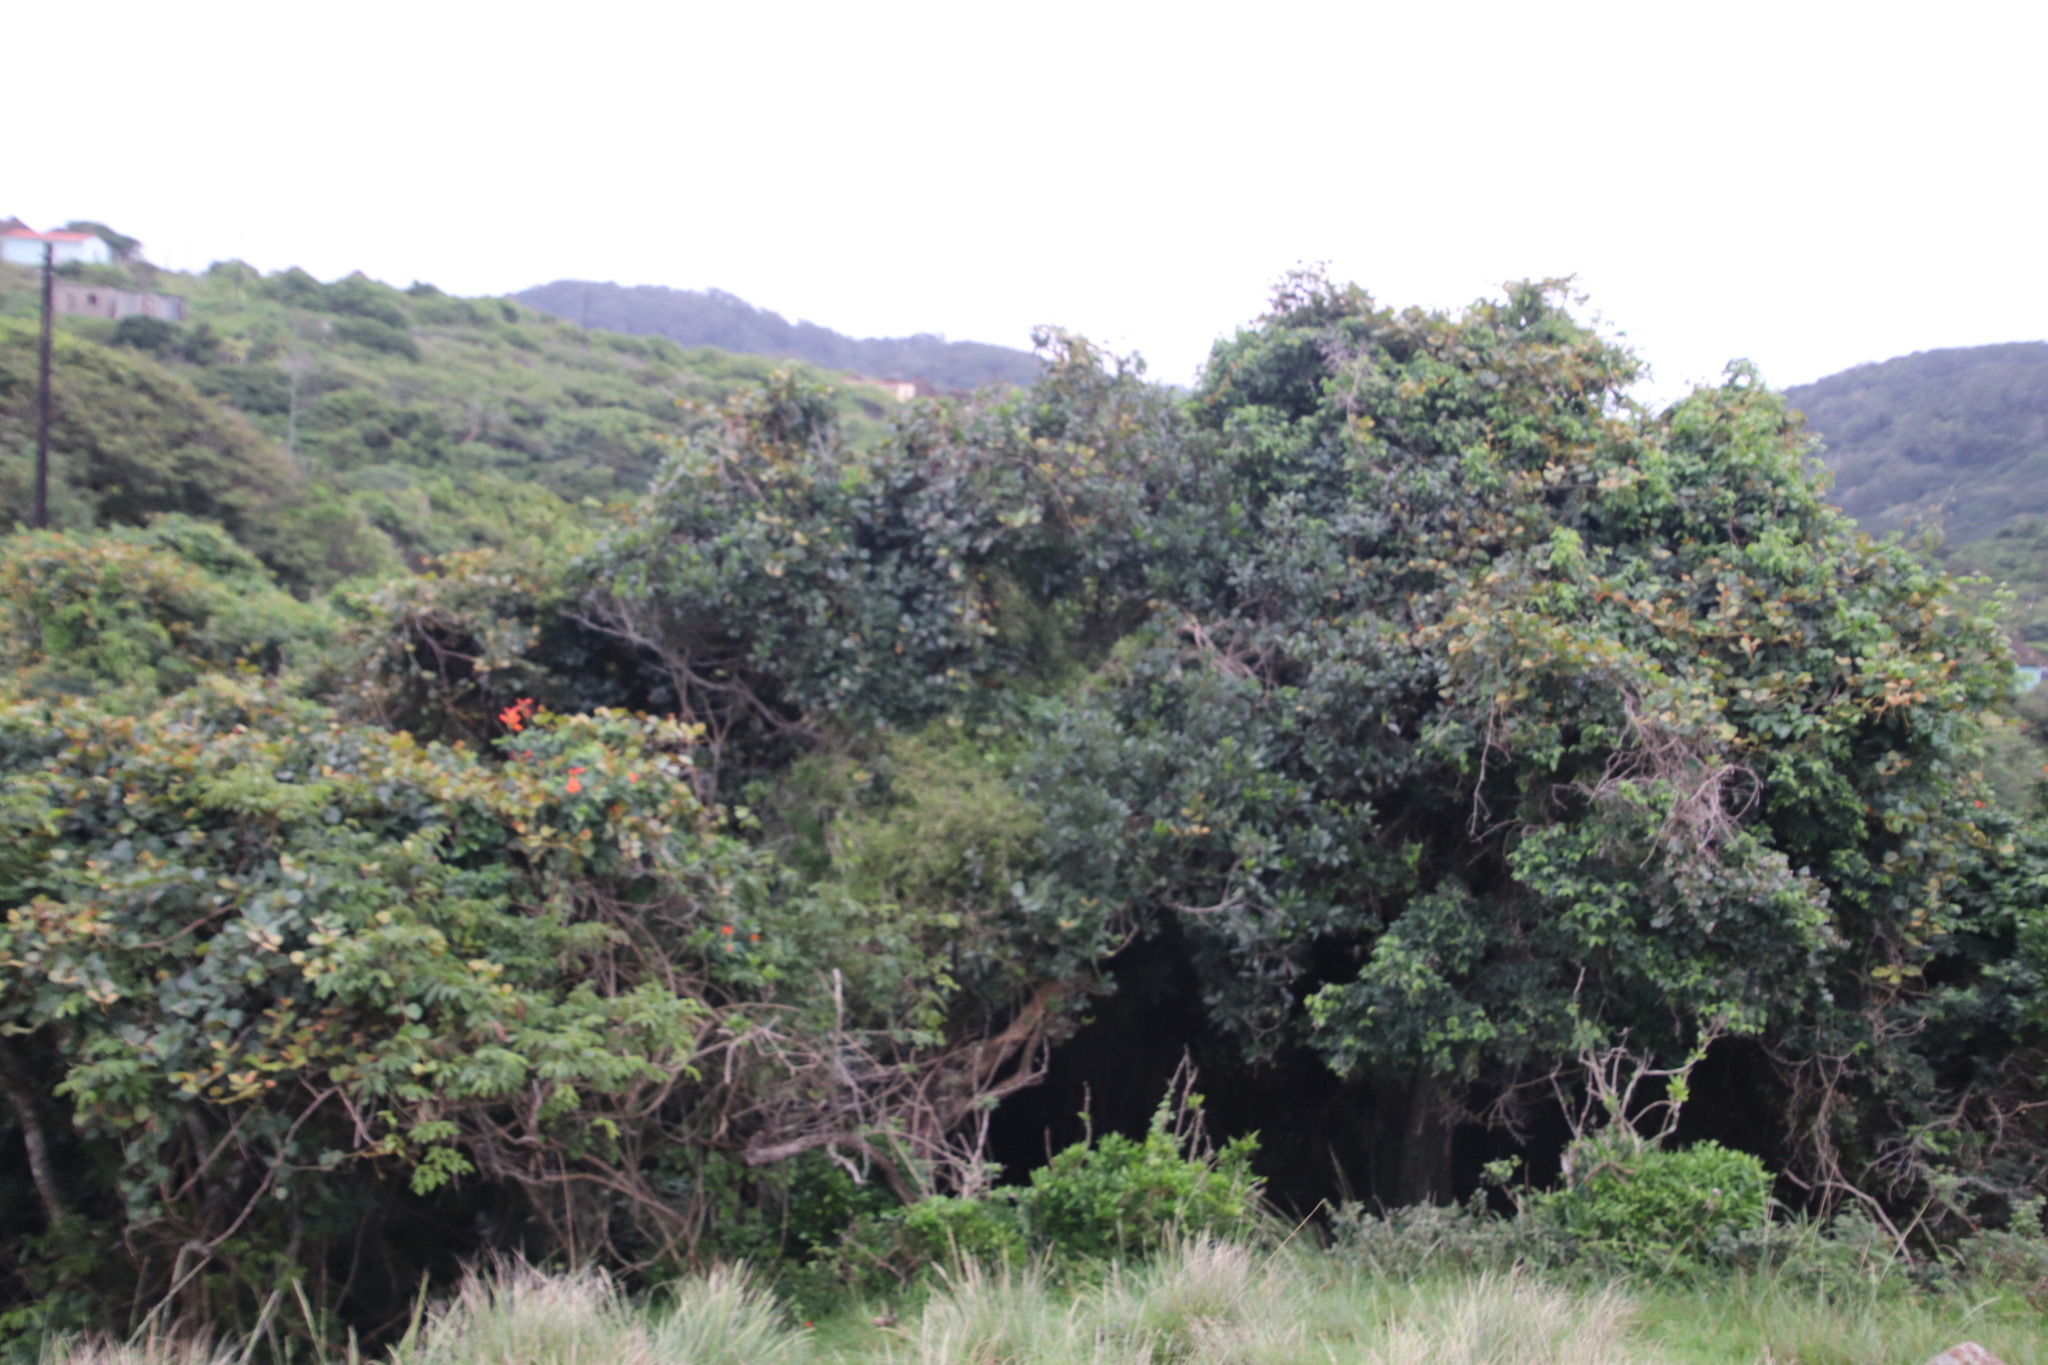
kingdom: Plantae
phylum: Tracheophyta
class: Magnoliopsida
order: Vitales
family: Vitaceae
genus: Rhoicissus
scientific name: Rhoicissus tomentosa
